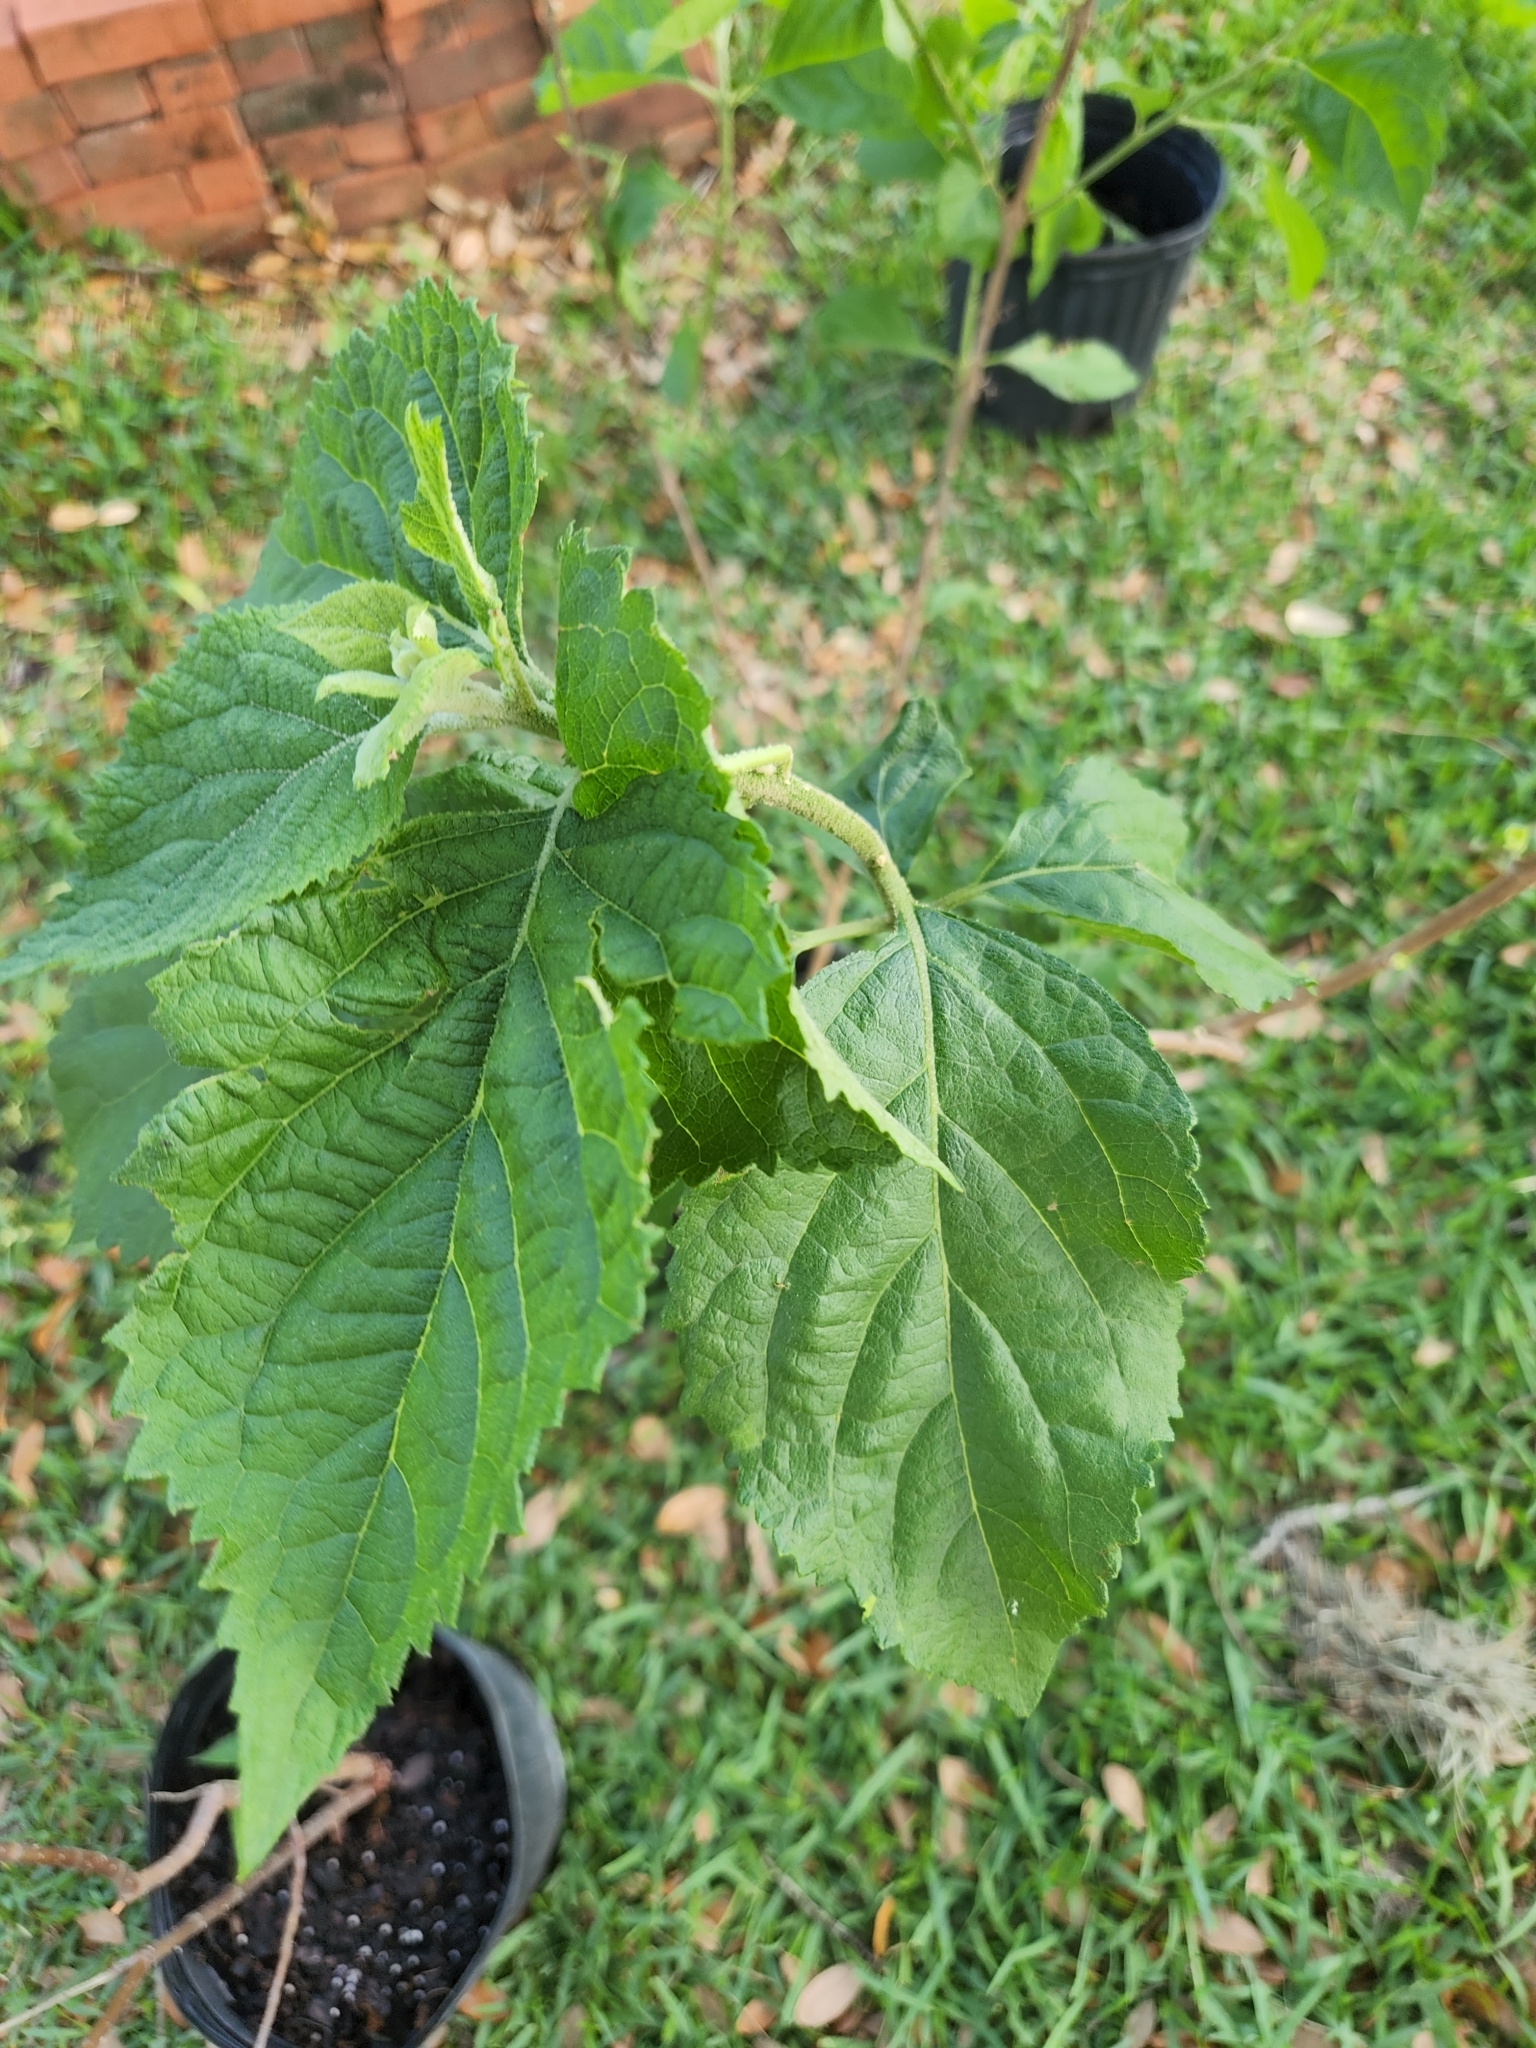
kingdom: Plantae
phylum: Tracheophyta
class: Magnoliopsida
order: Lamiales
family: Lamiaceae
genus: Callicarpa
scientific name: Callicarpa americana
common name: American beautyberry
